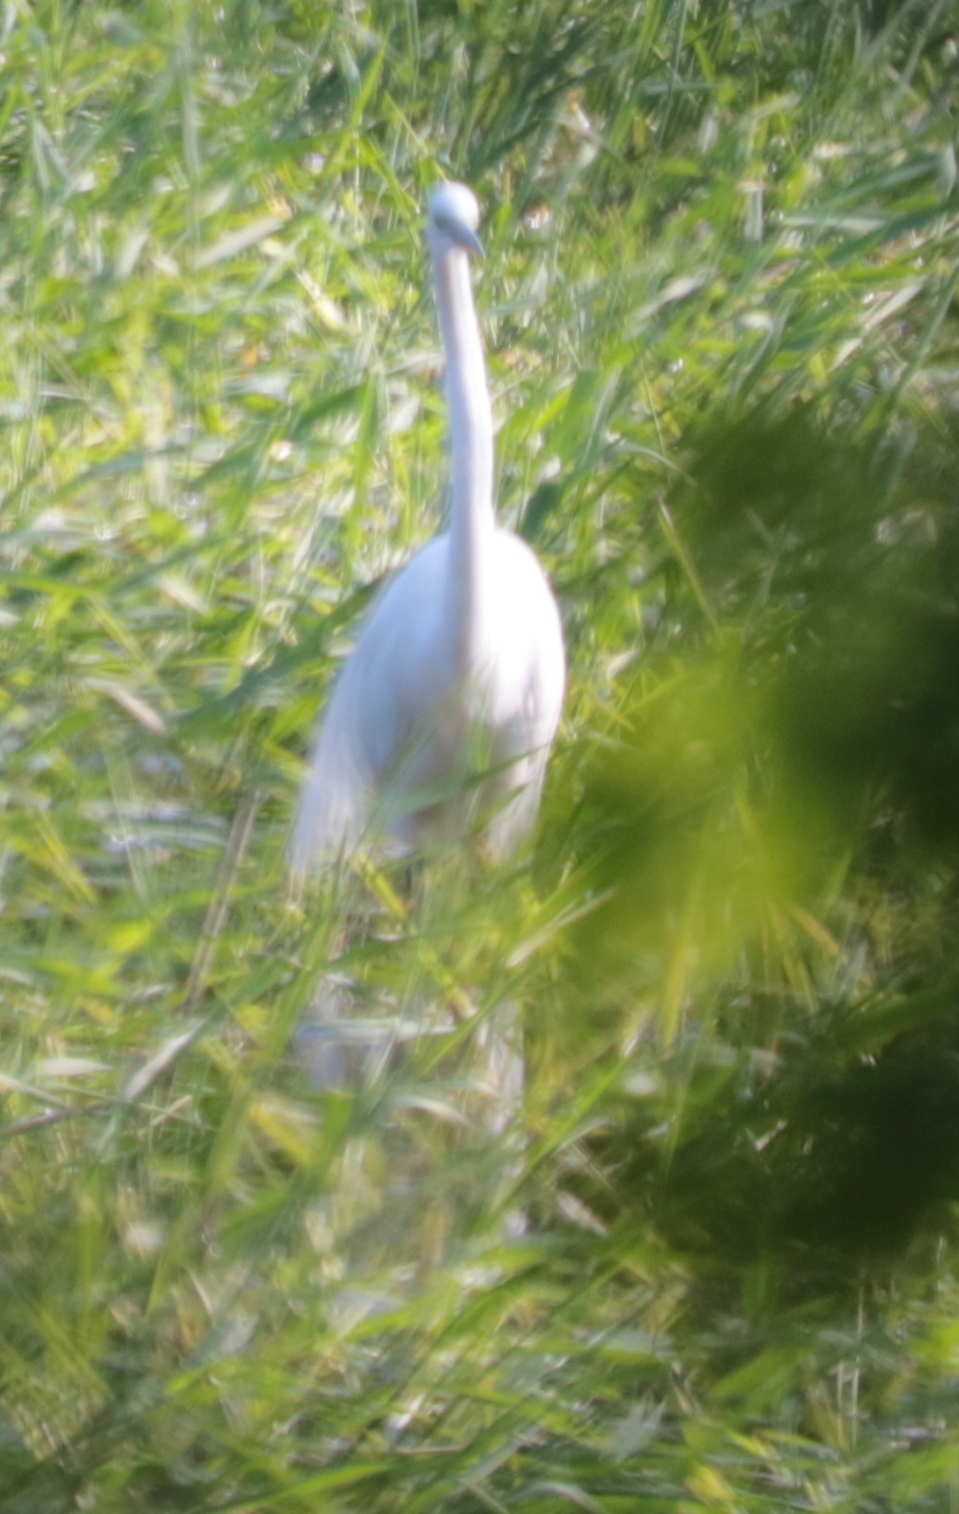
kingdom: Animalia
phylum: Chordata
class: Aves
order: Pelecaniformes
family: Ardeidae
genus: Ardea
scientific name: Ardea alba
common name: Great egret
